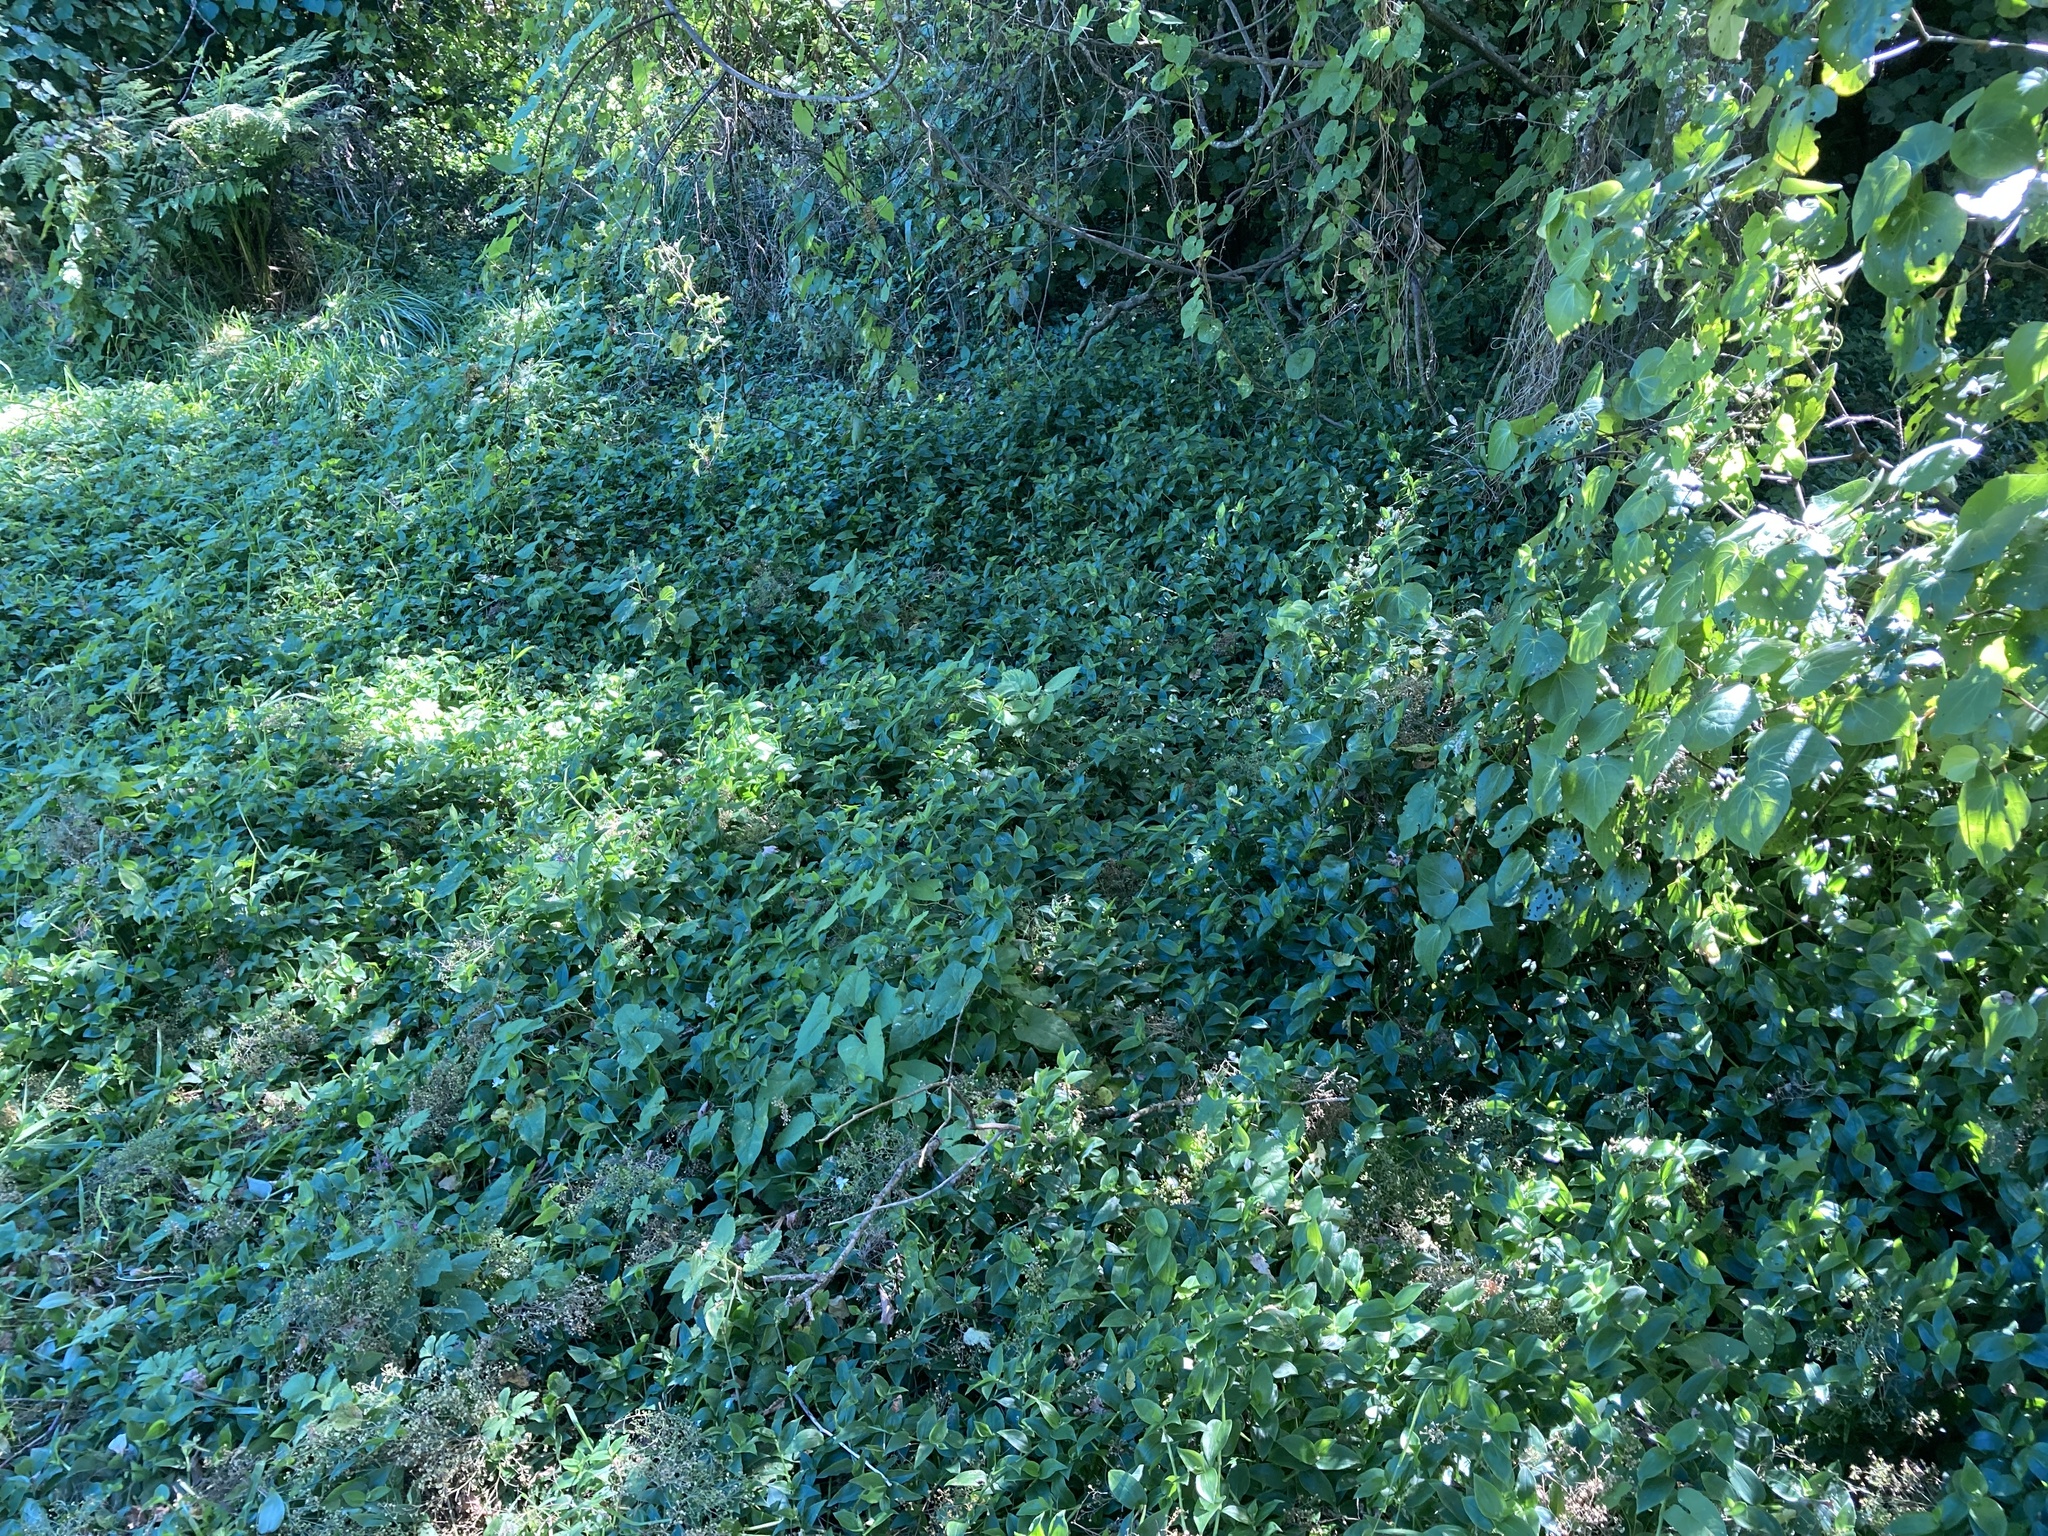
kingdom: Plantae
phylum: Tracheophyta
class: Liliopsida
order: Commelinales
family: Commelinaceae
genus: Tradescantia
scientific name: Tradescantia fluminensis
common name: Wandering-jew
